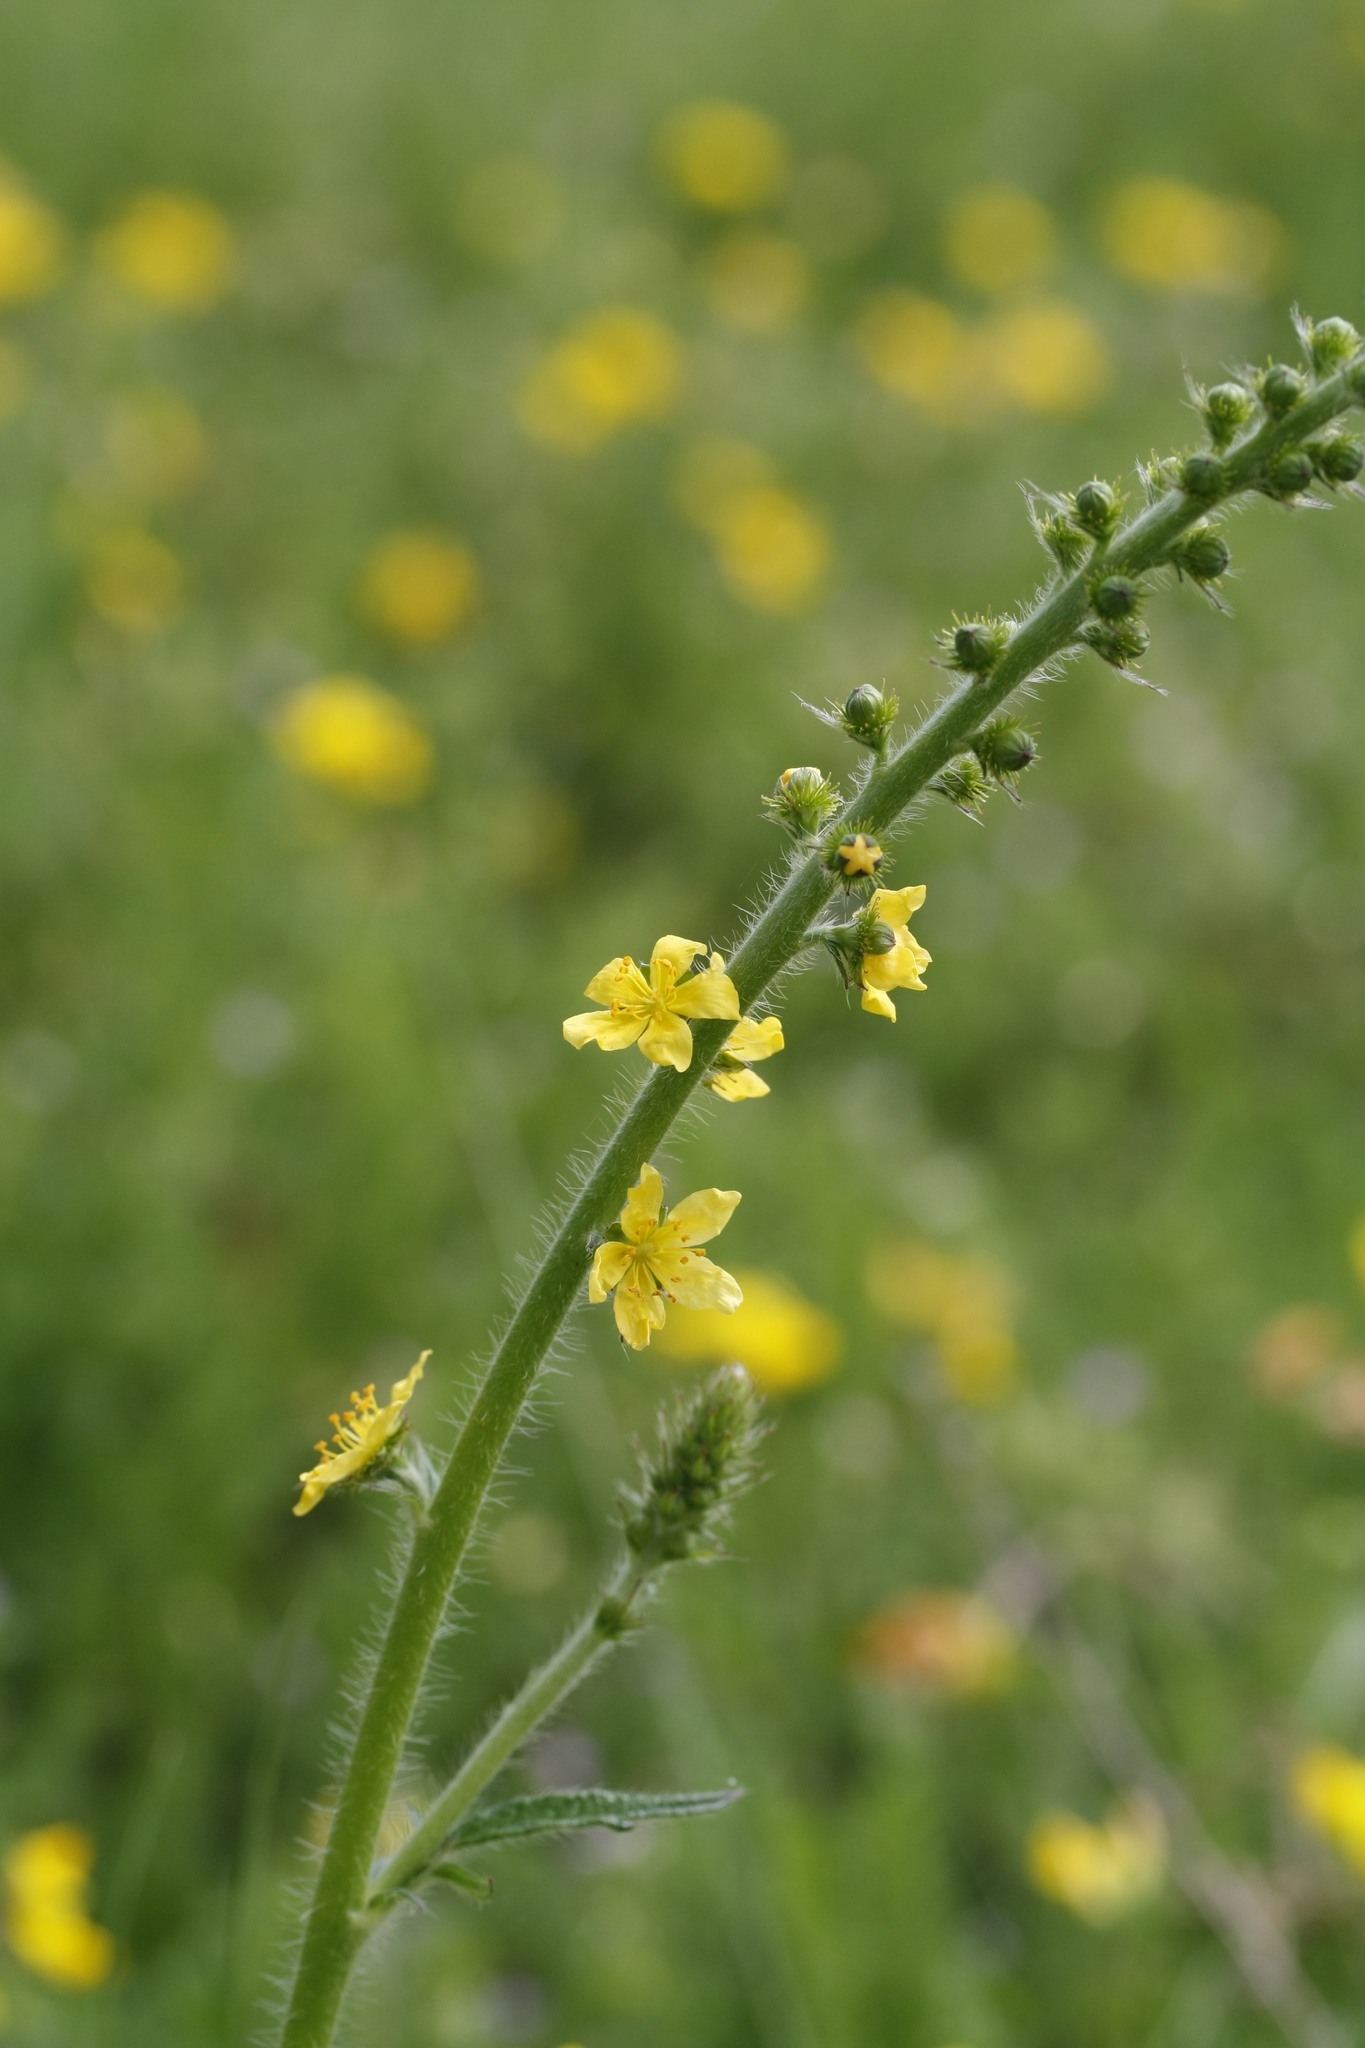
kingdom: Plantae
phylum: Tracheophyta
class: Magnoliopsida
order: Rosales
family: Rosaceae
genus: Agrimonia
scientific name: Agrimonia eupatoria
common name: Agrimony
